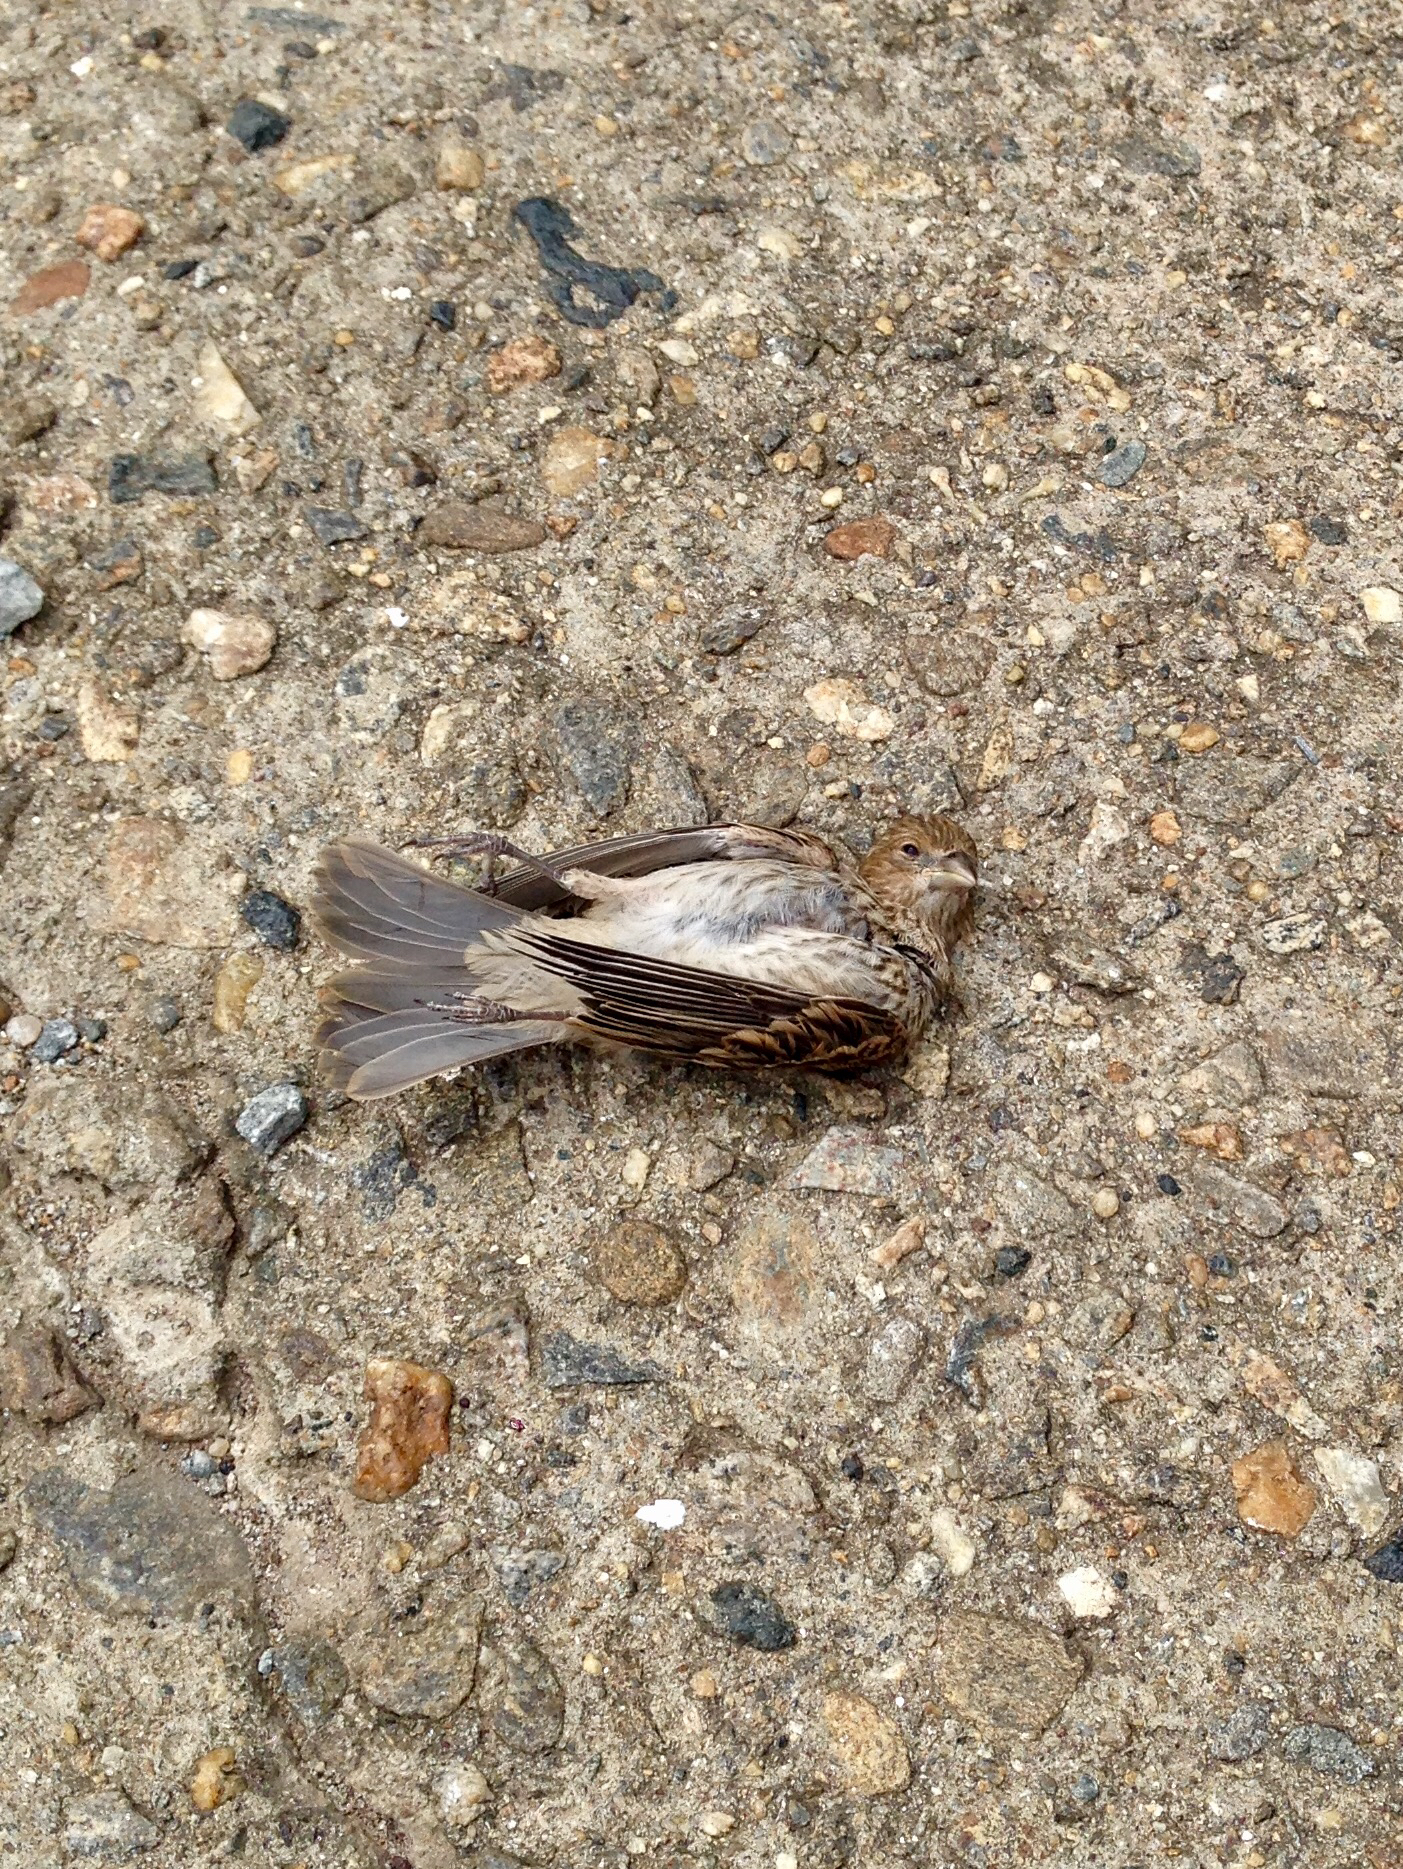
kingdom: Animalia
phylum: Chordata
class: Aves
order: Passeriformes
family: Fringillidae
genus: Haemorhous
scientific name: Haemorhous mexicanus
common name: House finch
